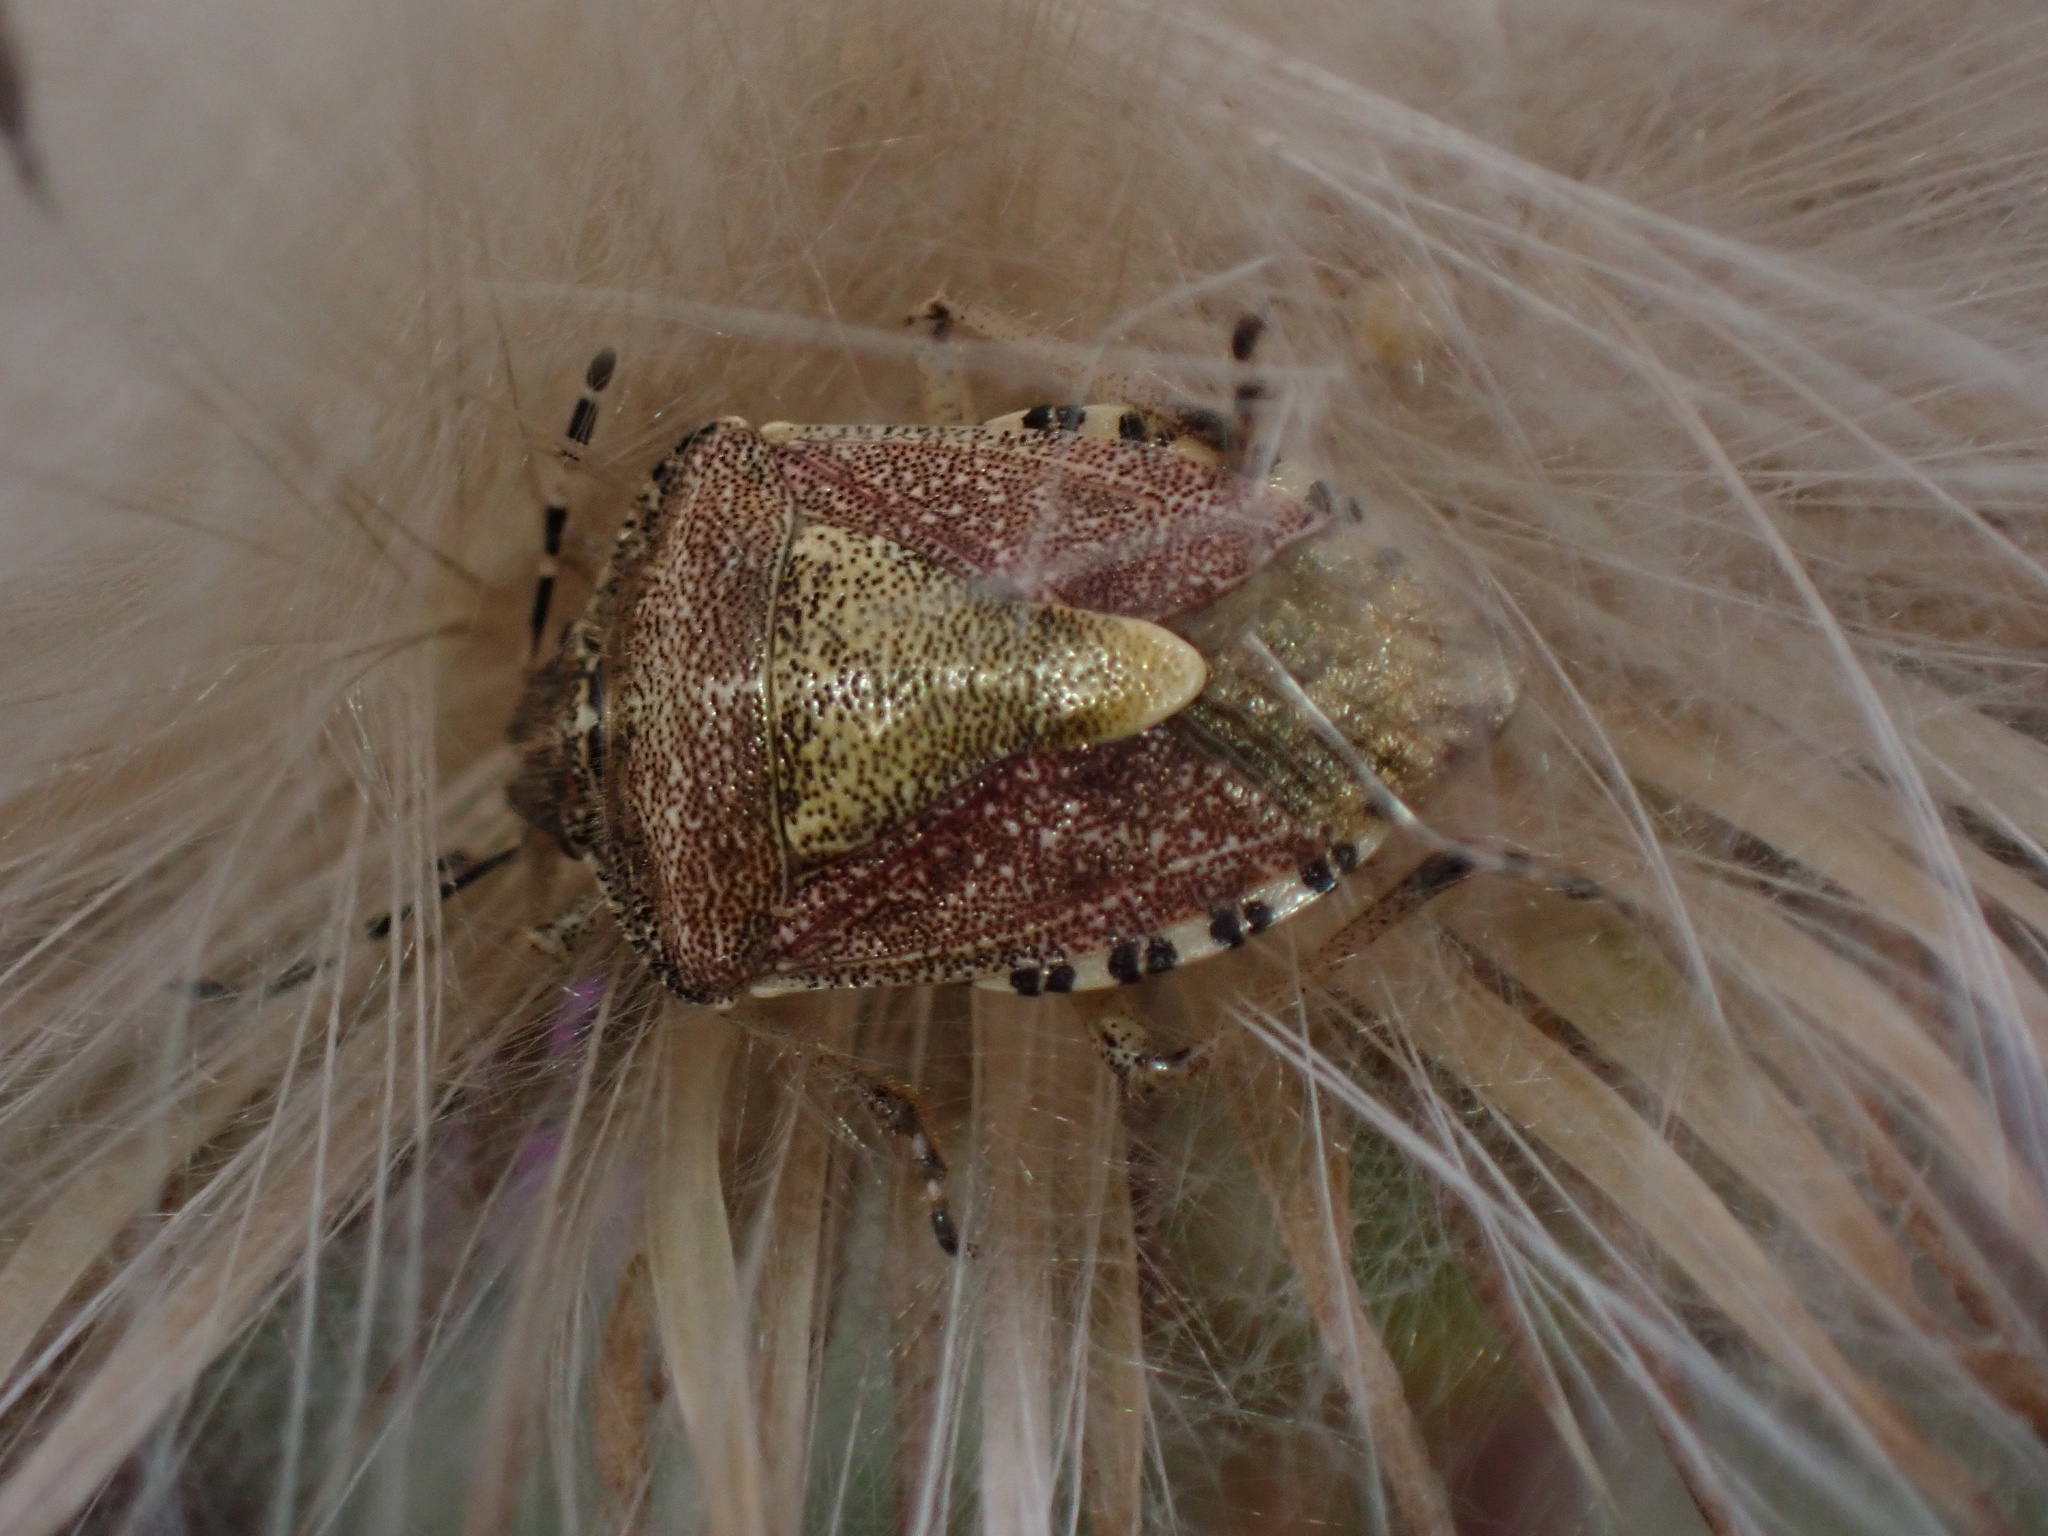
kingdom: Animalia
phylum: Arthropoda
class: Insecta
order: Hemiptera
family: Pentatomidae
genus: Dolycoris
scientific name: Dolycoris baccarum
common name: Sloe bug
